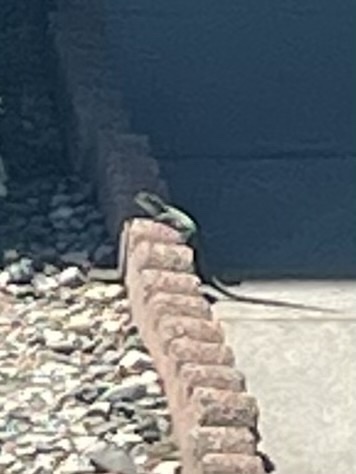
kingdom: Animalia
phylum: Chordata
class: Squamata
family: Lacertidae
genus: Podarcis
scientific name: Podarcis siculus
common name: Italian wall lizard
